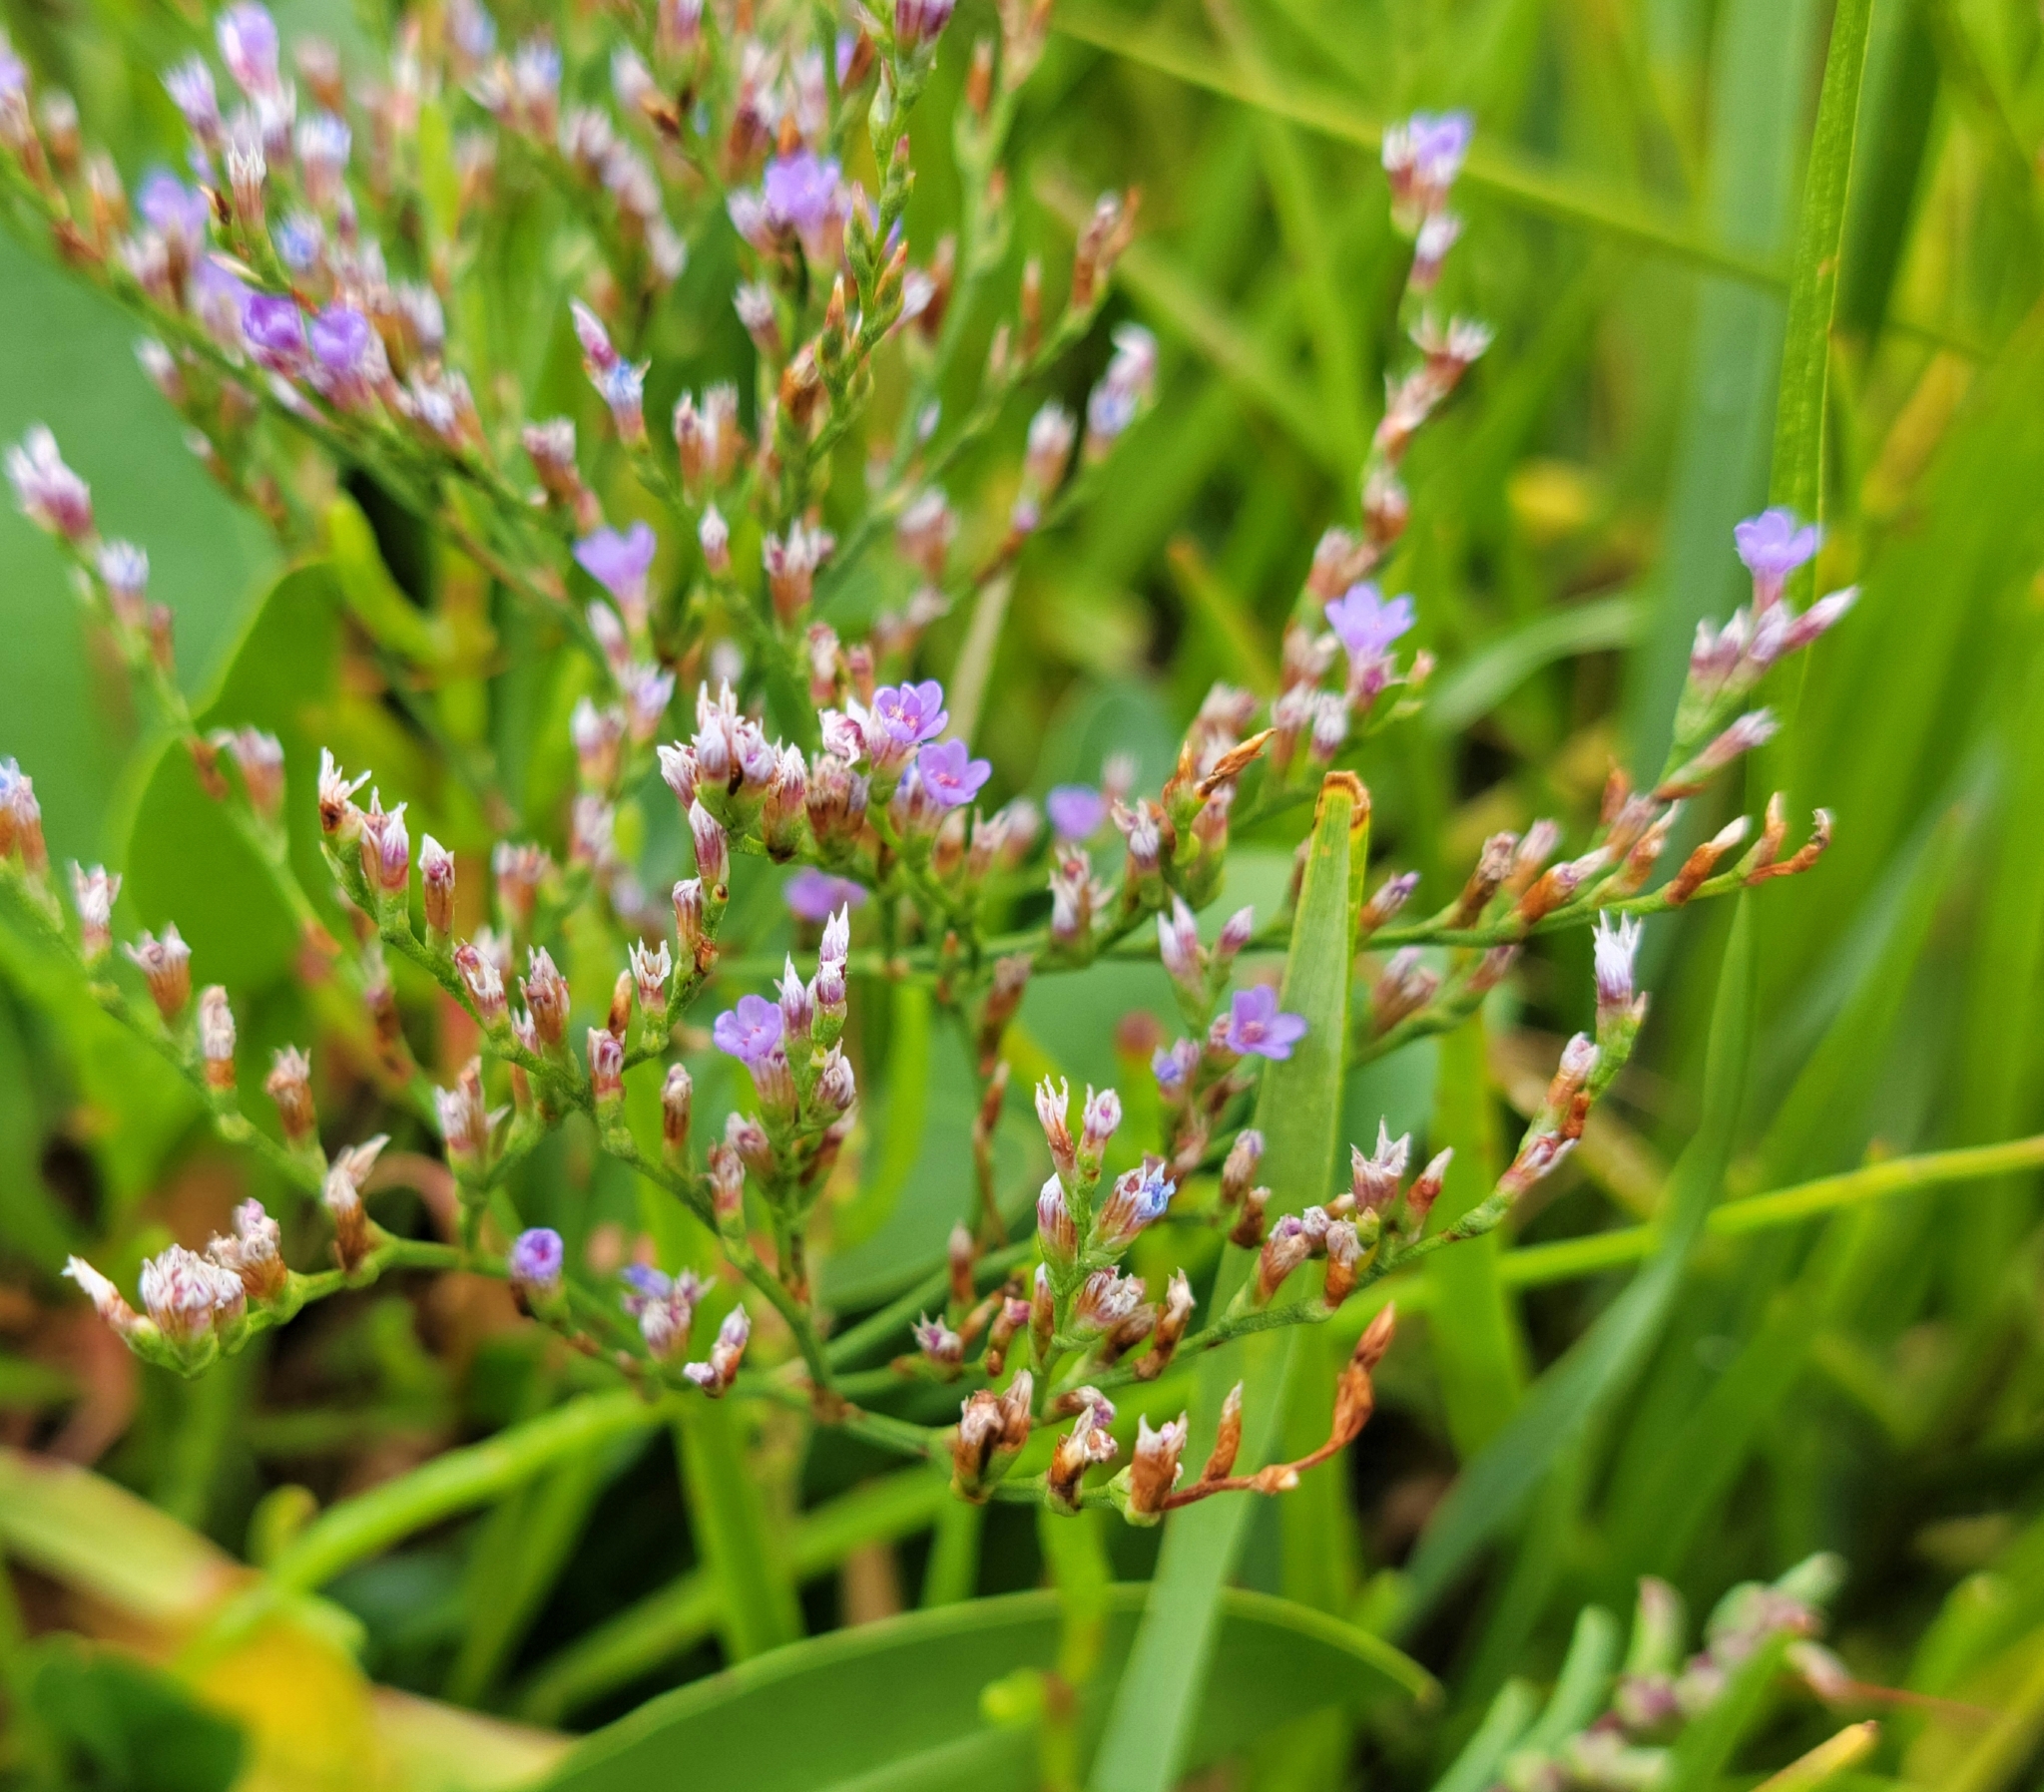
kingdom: Plantae
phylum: Tracheophyta
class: Magnoliopsida
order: Caryophyllales
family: Plumbaginaceae
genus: Limonium
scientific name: Limonium carolinianum
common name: Carolina sea lavender
